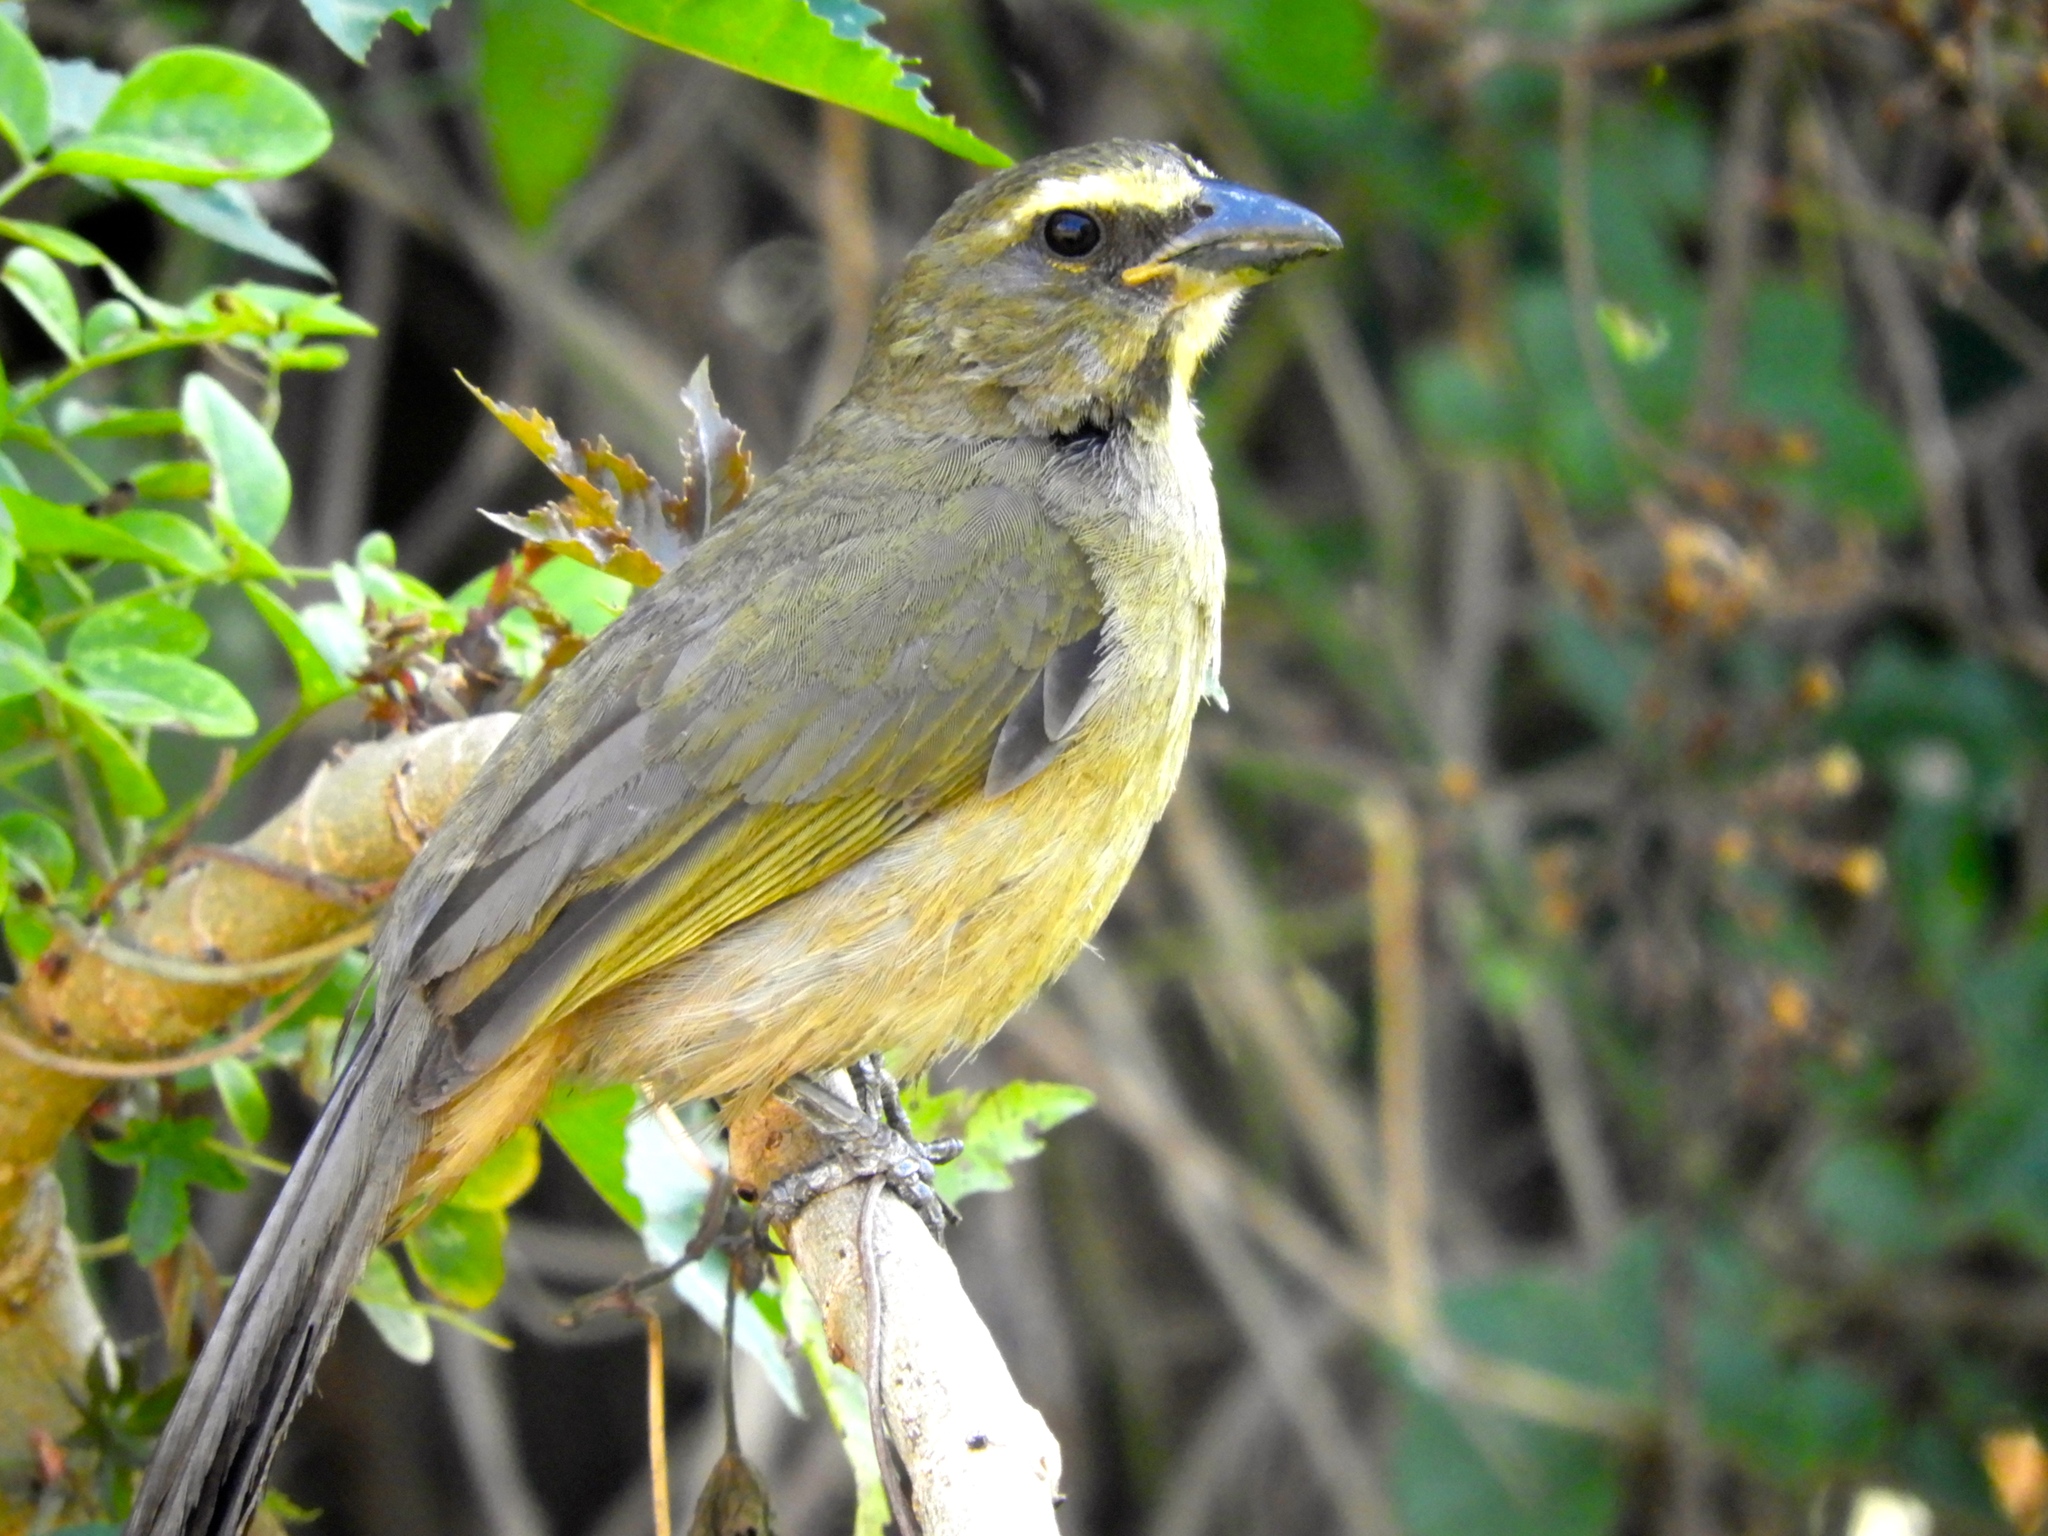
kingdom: Animalia
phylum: Chordata
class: Aves
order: Passeriformes
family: Thraupidae
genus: Saltator
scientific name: Saltator grandis
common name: Cinnamon-bellied saltator
